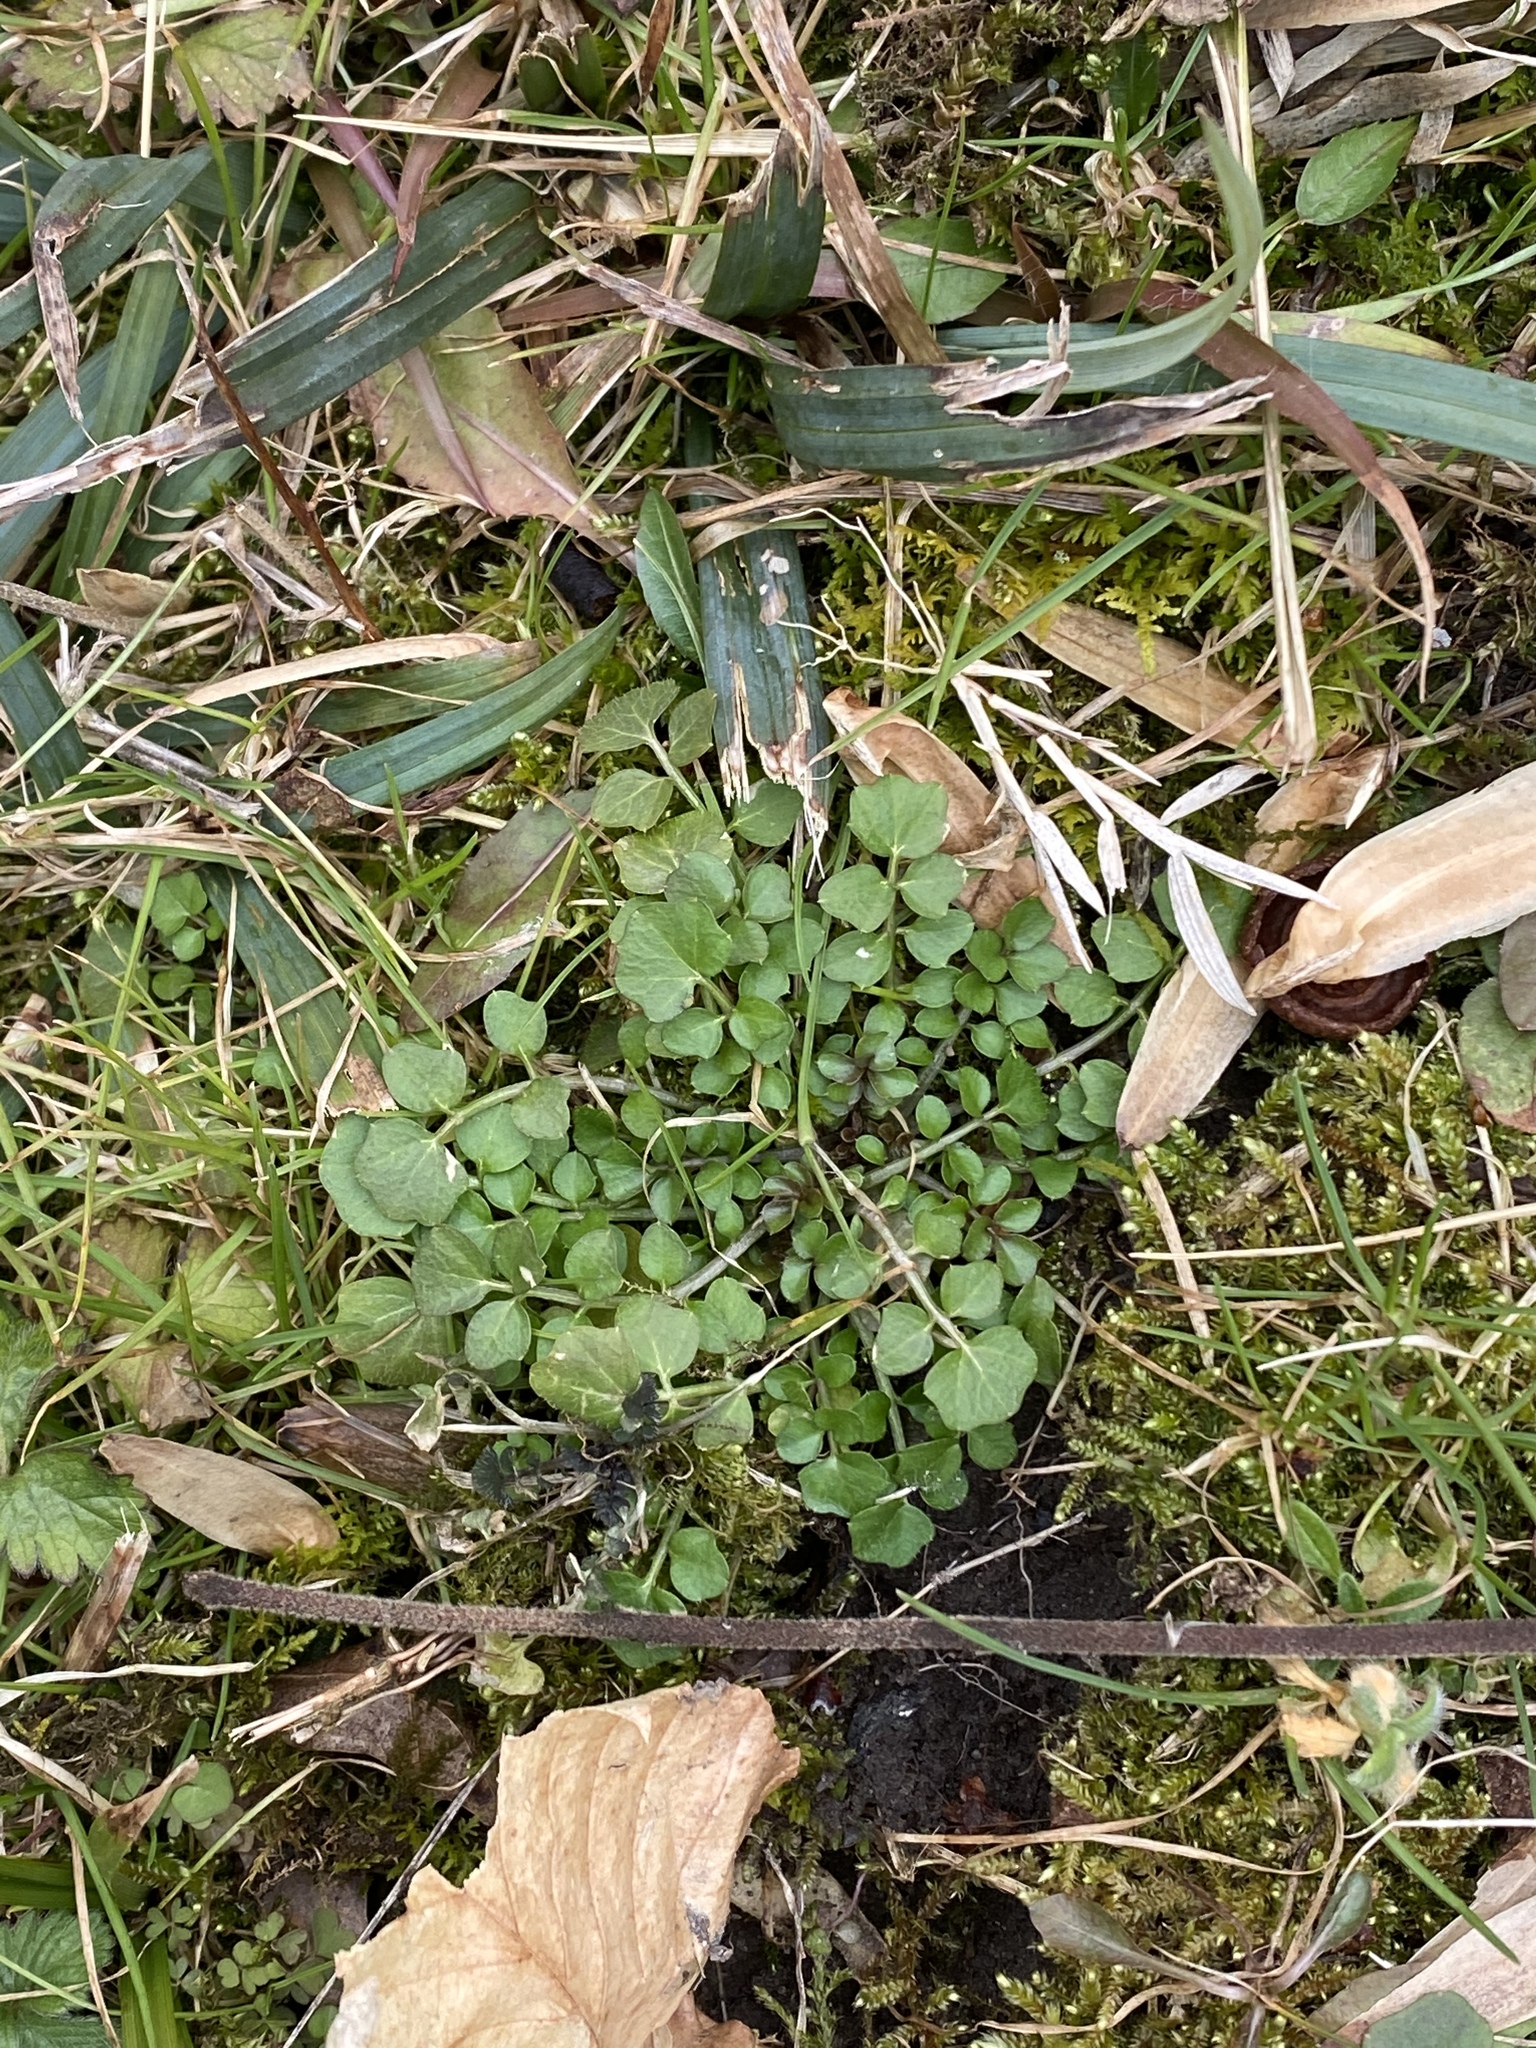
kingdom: Plantae
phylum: Tracheophyta
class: Magnoliopsida
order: Brassicales
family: Brassicaceae
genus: Cardamine
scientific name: Cardamine hirsuta
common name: Hairy bittercress
